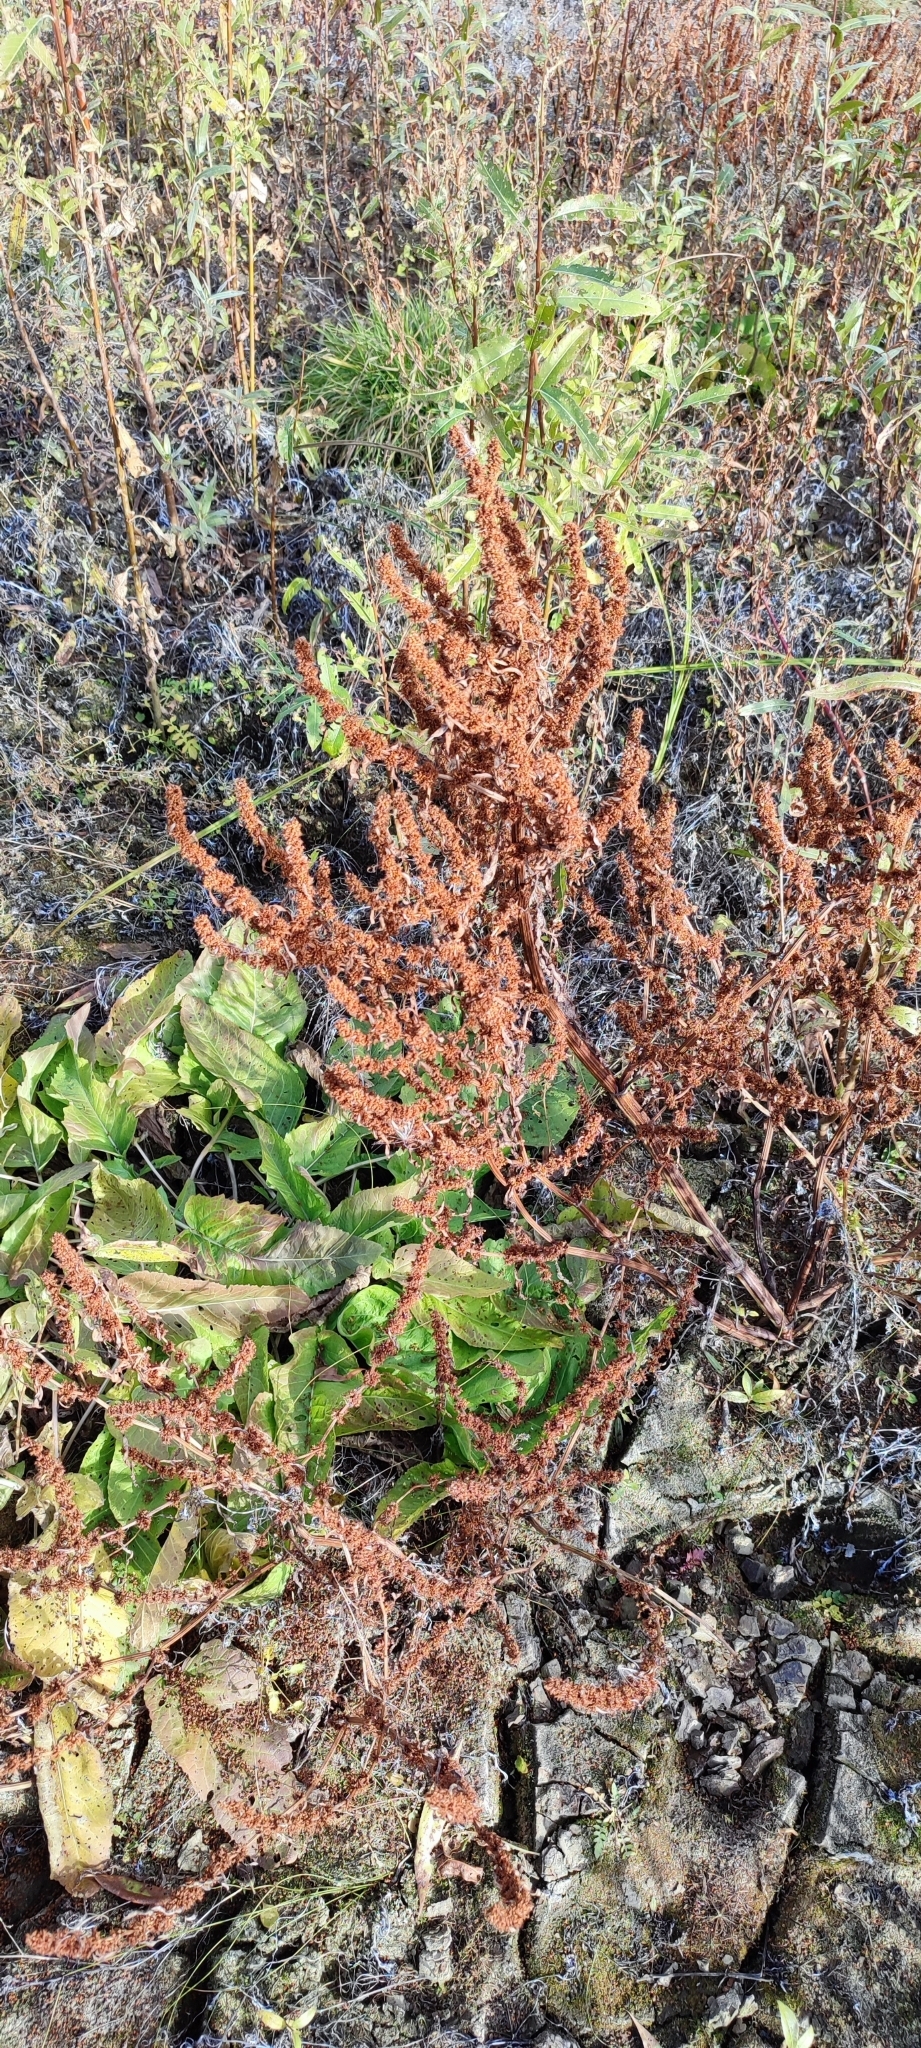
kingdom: Plantae
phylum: Tracheophyta
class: Magnoliopsida
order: Caryophyllales
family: Polygonaceae
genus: Rumex
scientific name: Rumex maritimus
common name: Golden dock
